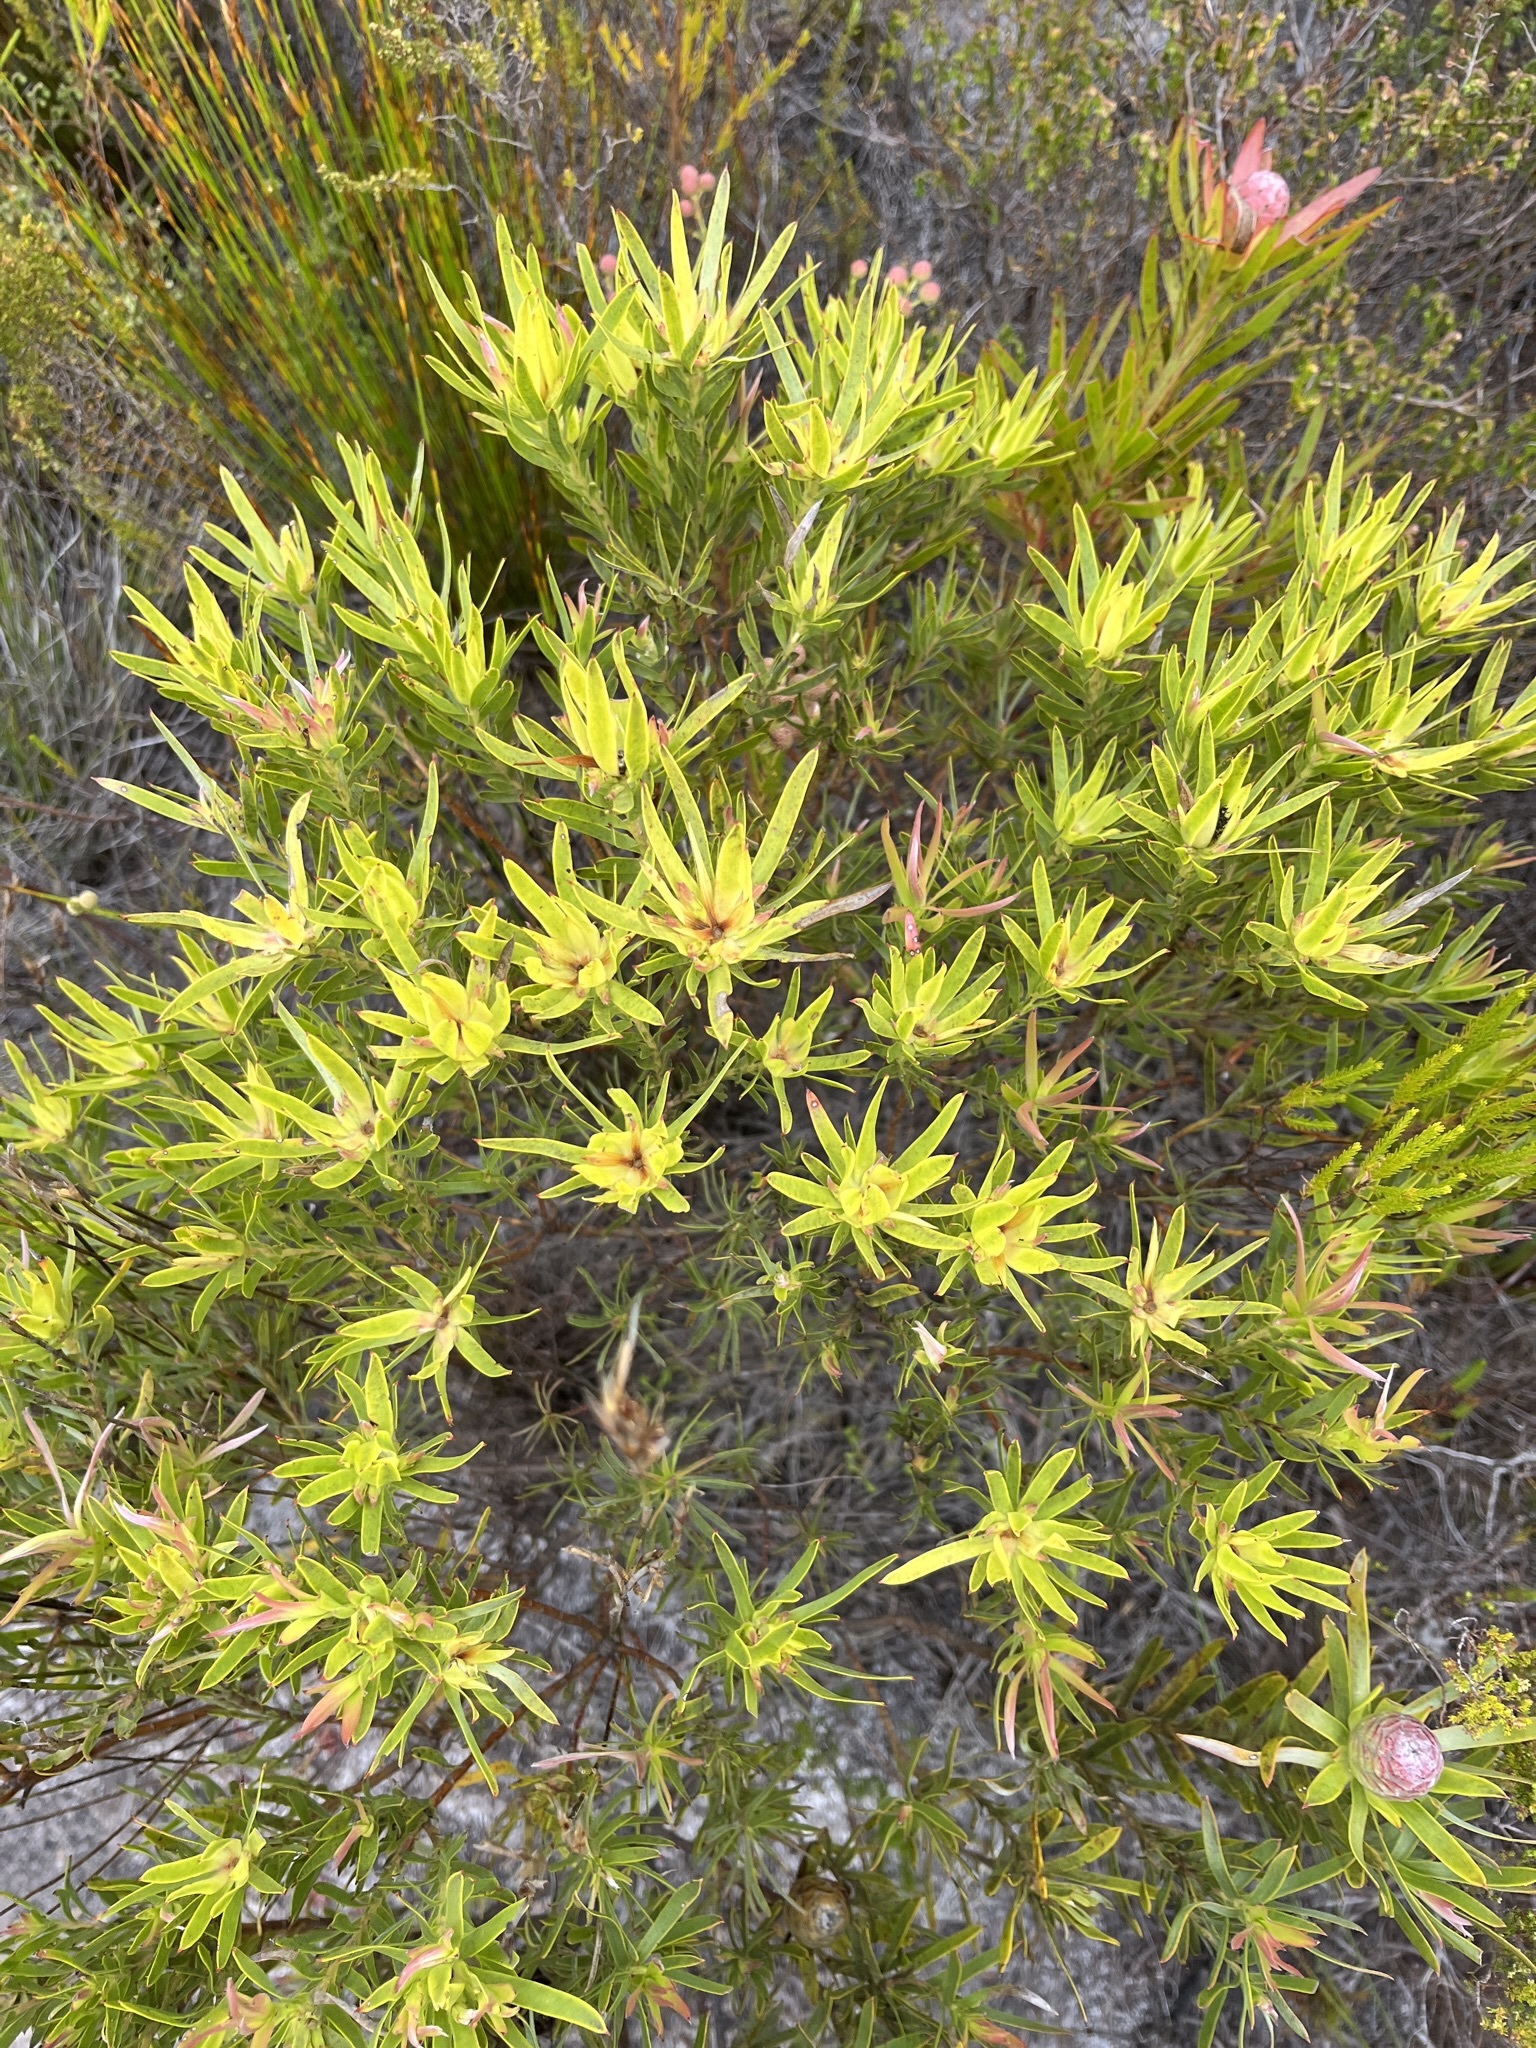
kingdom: Plantae
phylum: Tracheophyta
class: Magnoliopsida
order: Proteales
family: Proteaceae
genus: Leucadendron
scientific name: Leucadendron xanthoconus
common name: Sickle-leaf conebush
